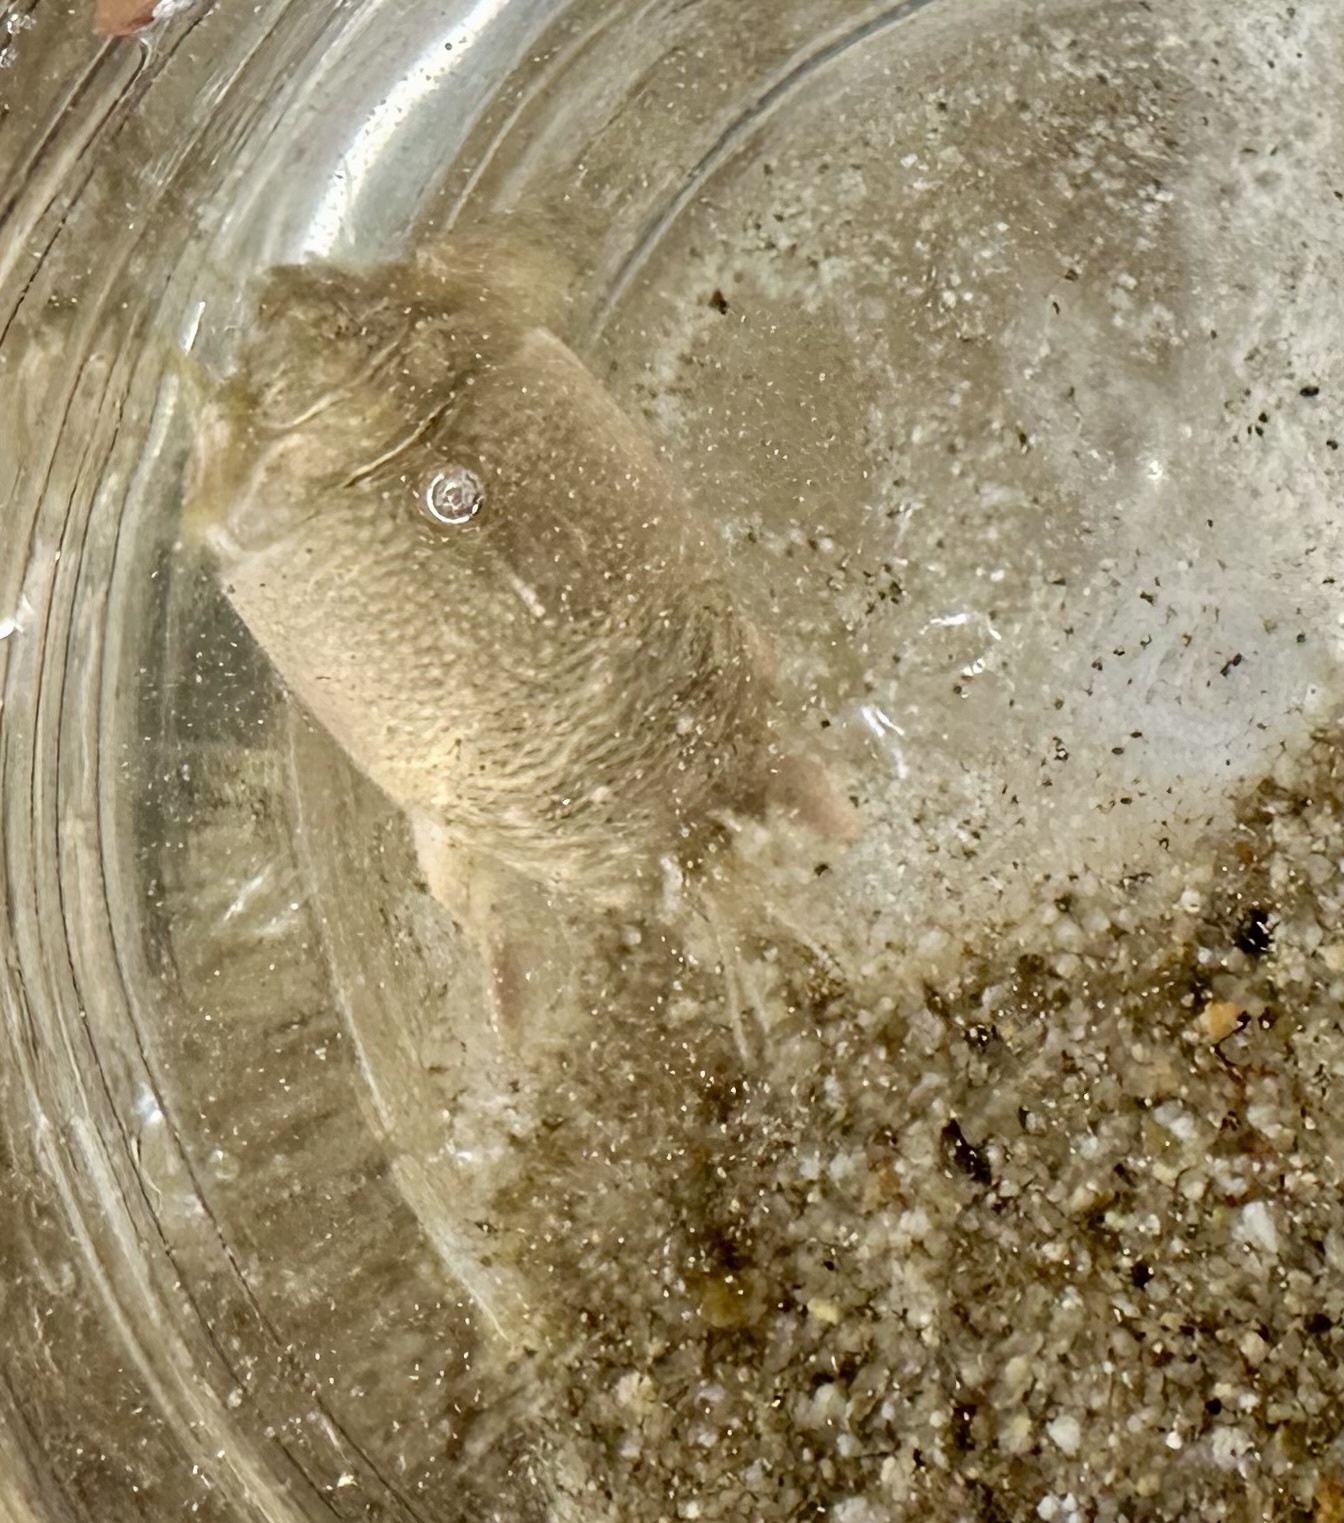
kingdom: Animalia
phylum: Arthropoda
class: Malacostraca
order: Decapoda
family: Hippidae
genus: Emerita
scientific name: Emerita analoga
